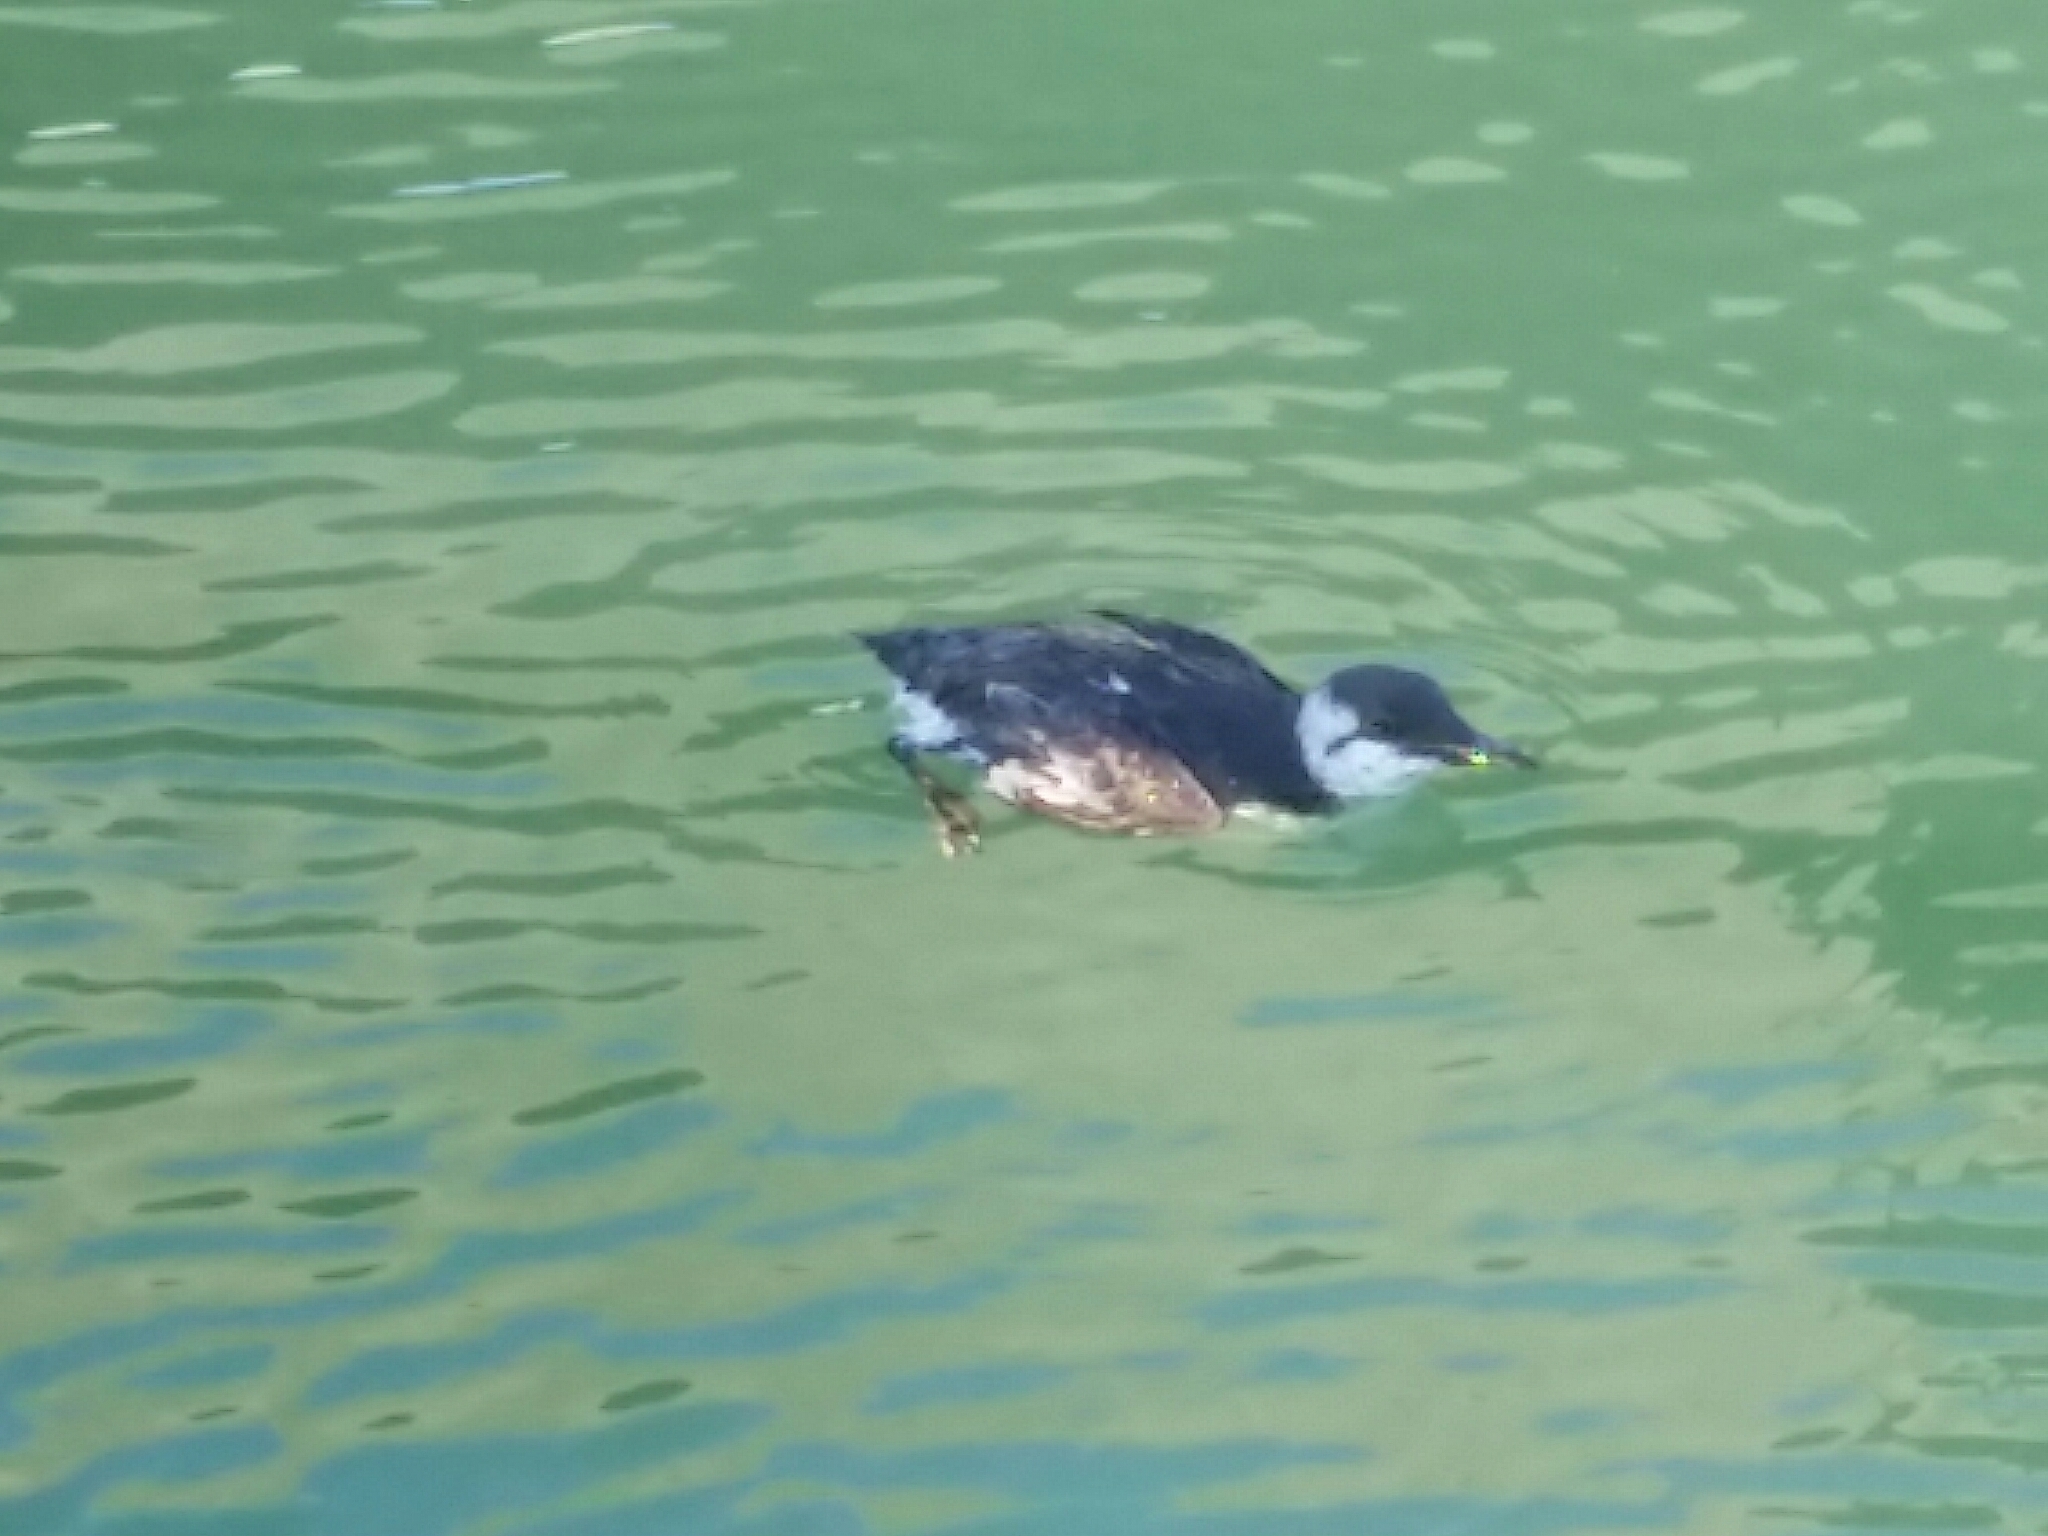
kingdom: Animalia
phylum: Chordata
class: Aves
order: Charadriiformes
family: Alcidae
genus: Uria
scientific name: Uria aalge
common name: Common murre
